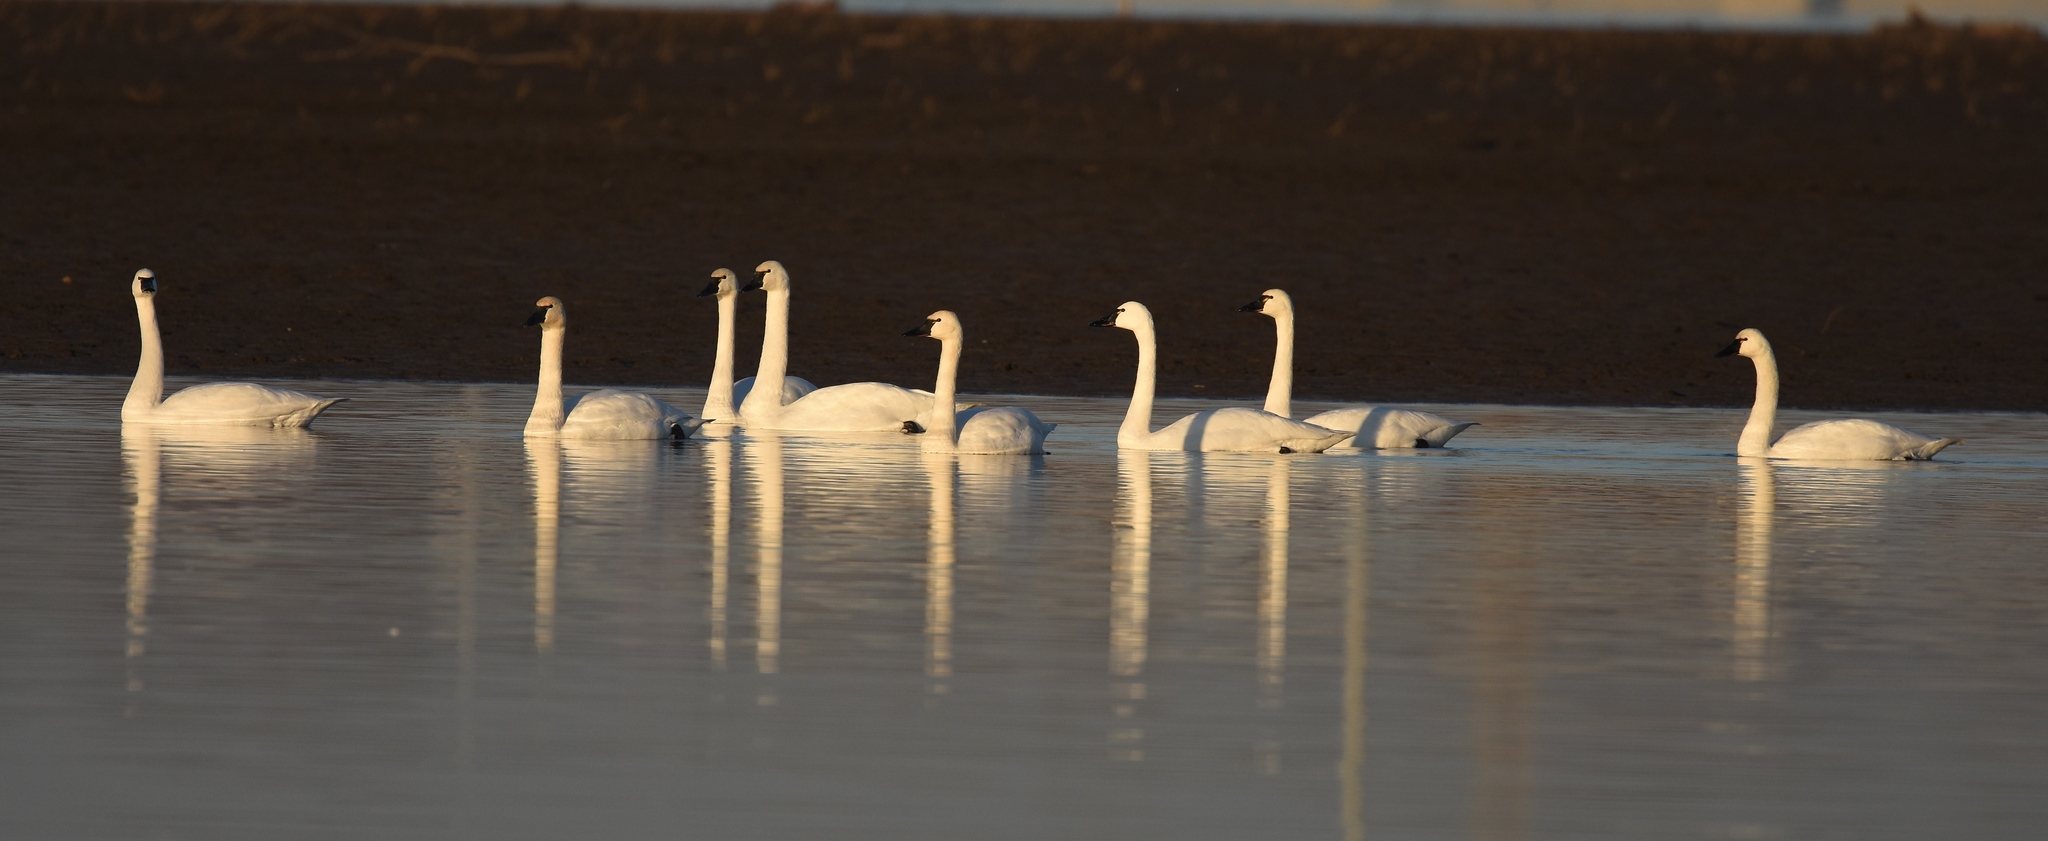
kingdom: Animalia
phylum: Chordata
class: Aves
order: Anseriformes
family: Anatidae
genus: Cygnus
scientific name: Cygnus columbianus
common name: Tundra swan
